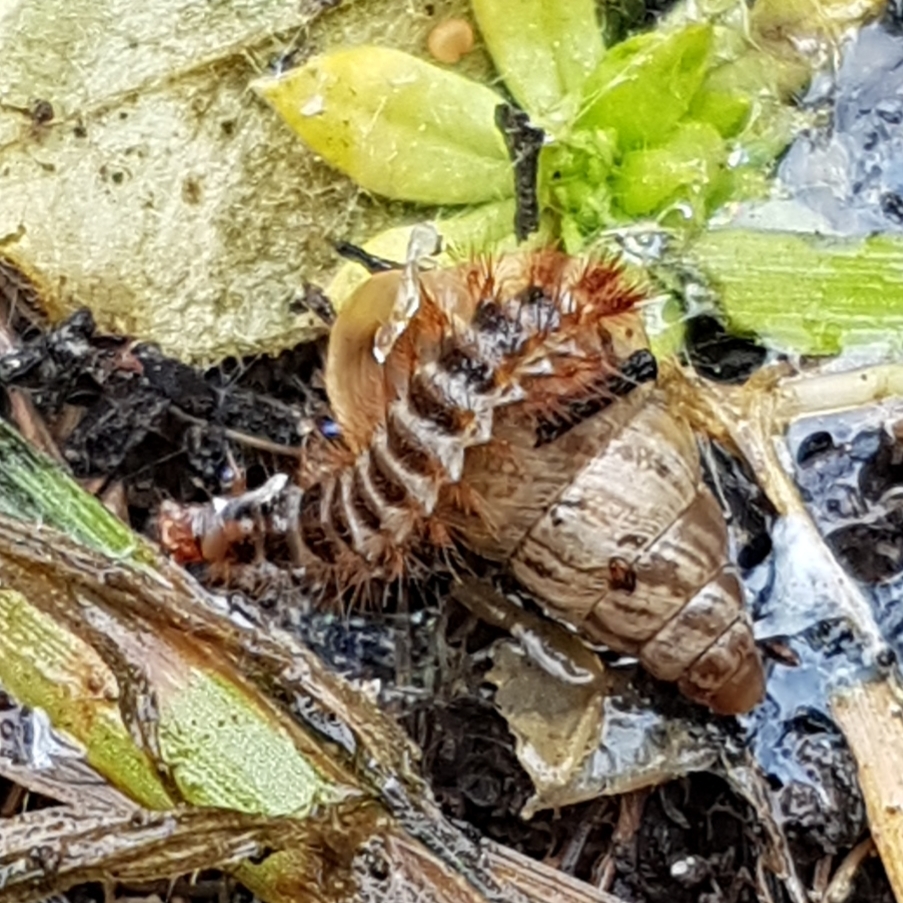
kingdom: Animalia
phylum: Arthropoda
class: Insecta
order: Coleoptera
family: Drilidae
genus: Drilus
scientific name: Drilus flavescens
